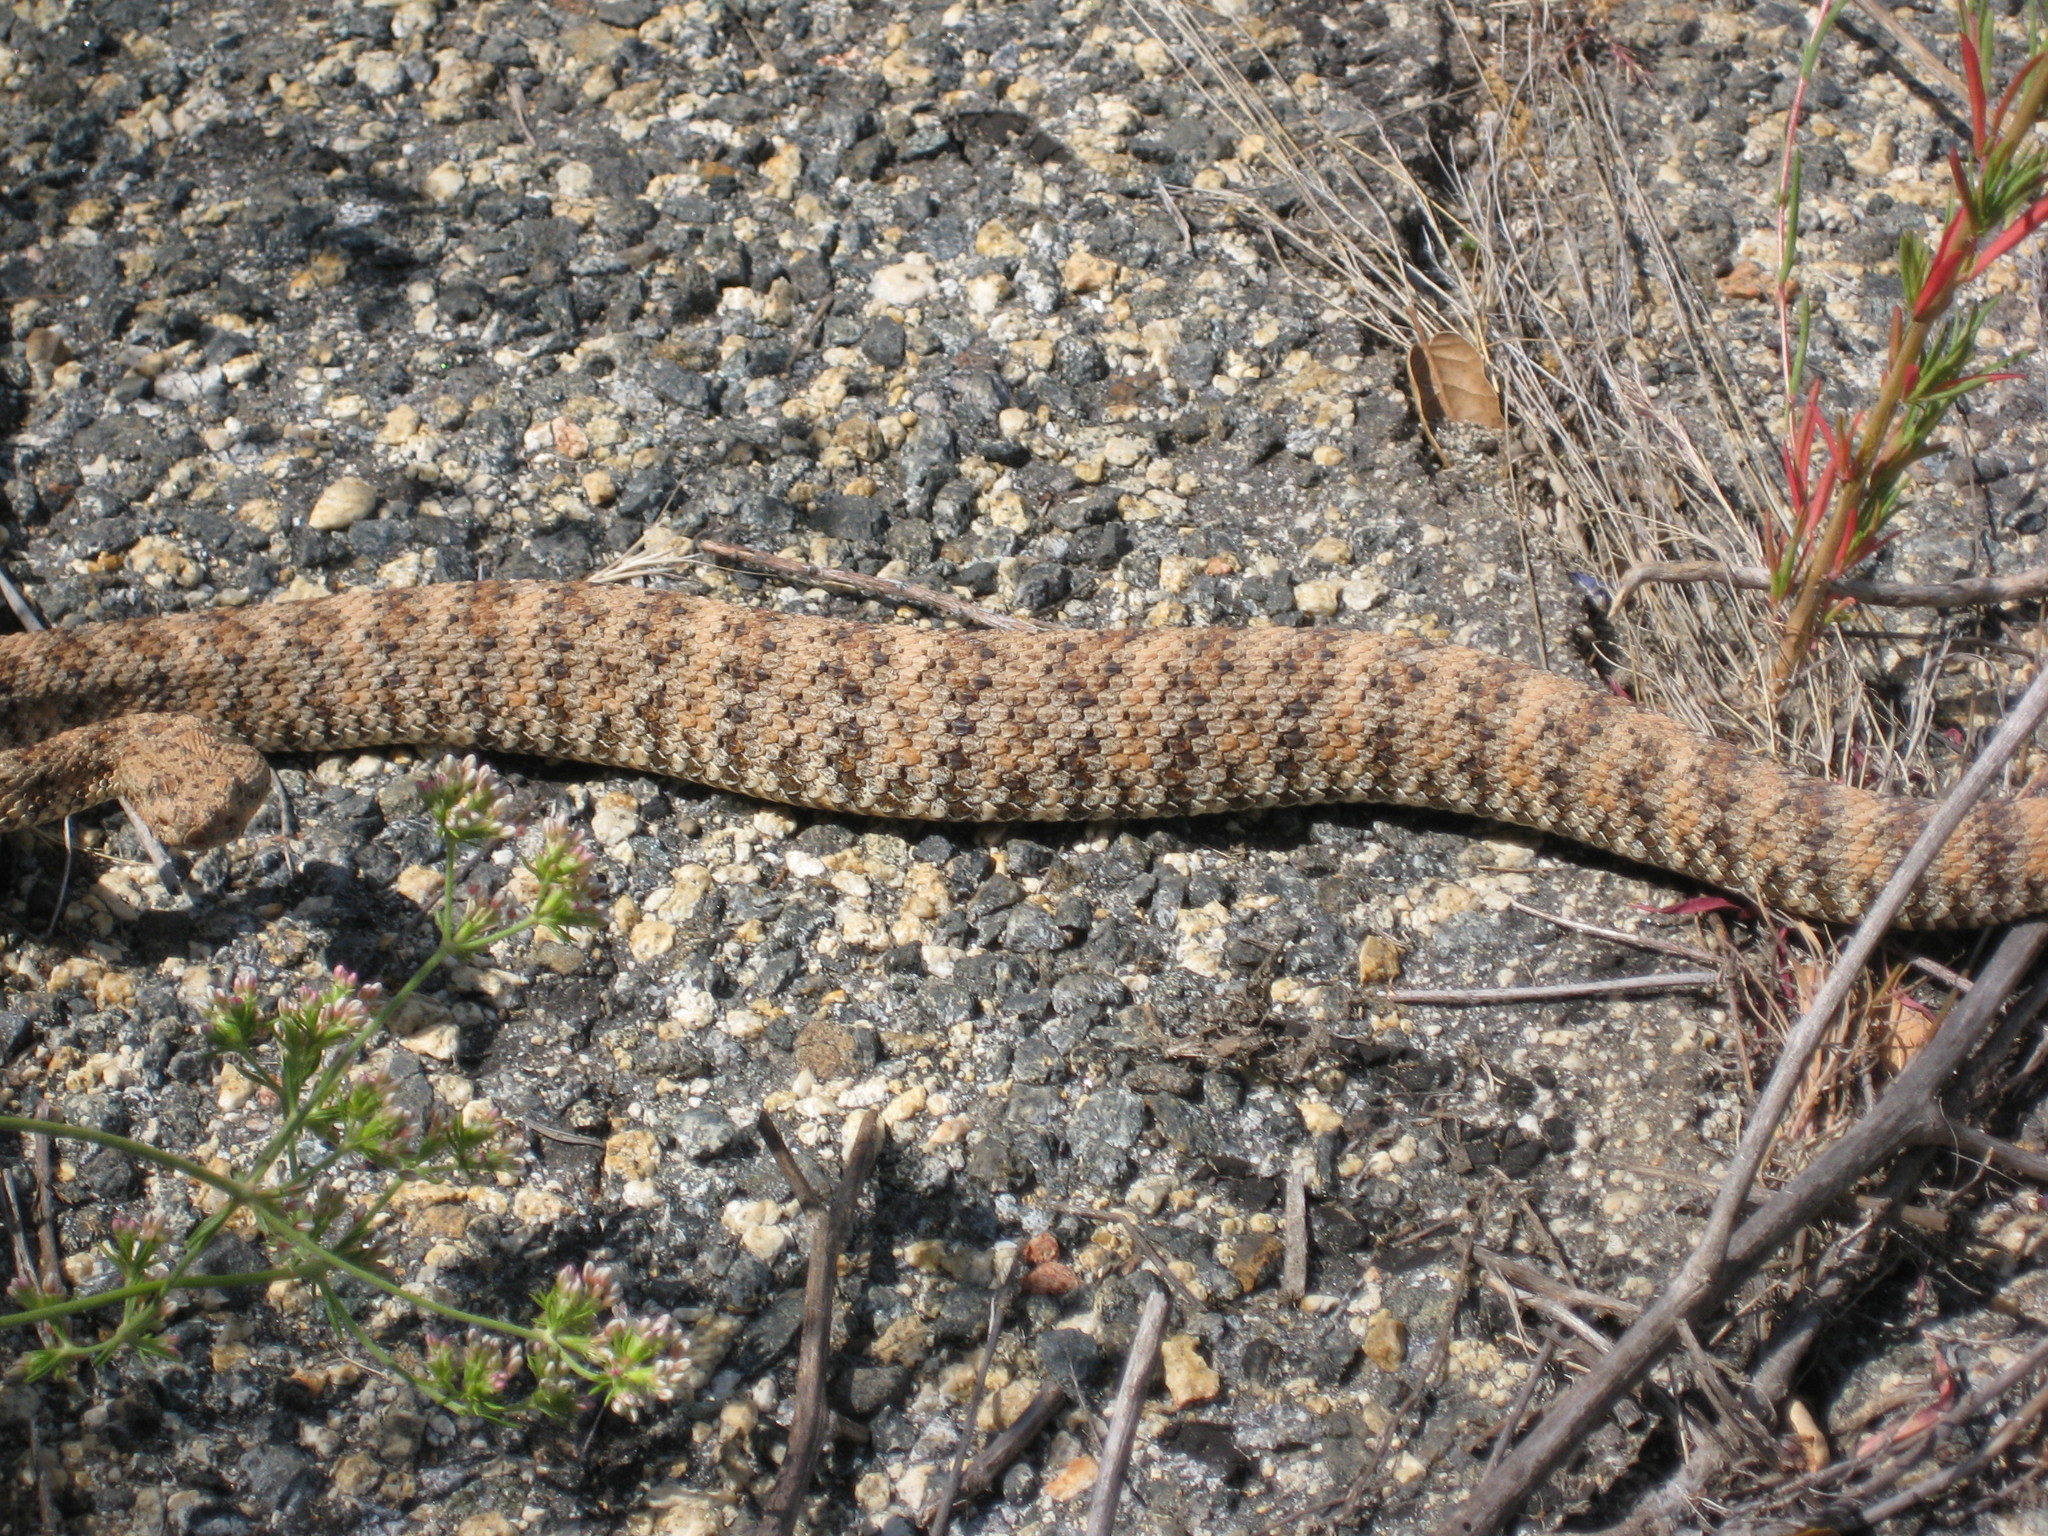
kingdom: Animalia
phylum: Chordata
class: Squamata
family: Viperidae
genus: Crotalus
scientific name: Crotalus pyrrhus
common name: Southwestern speckled rattlesnake
